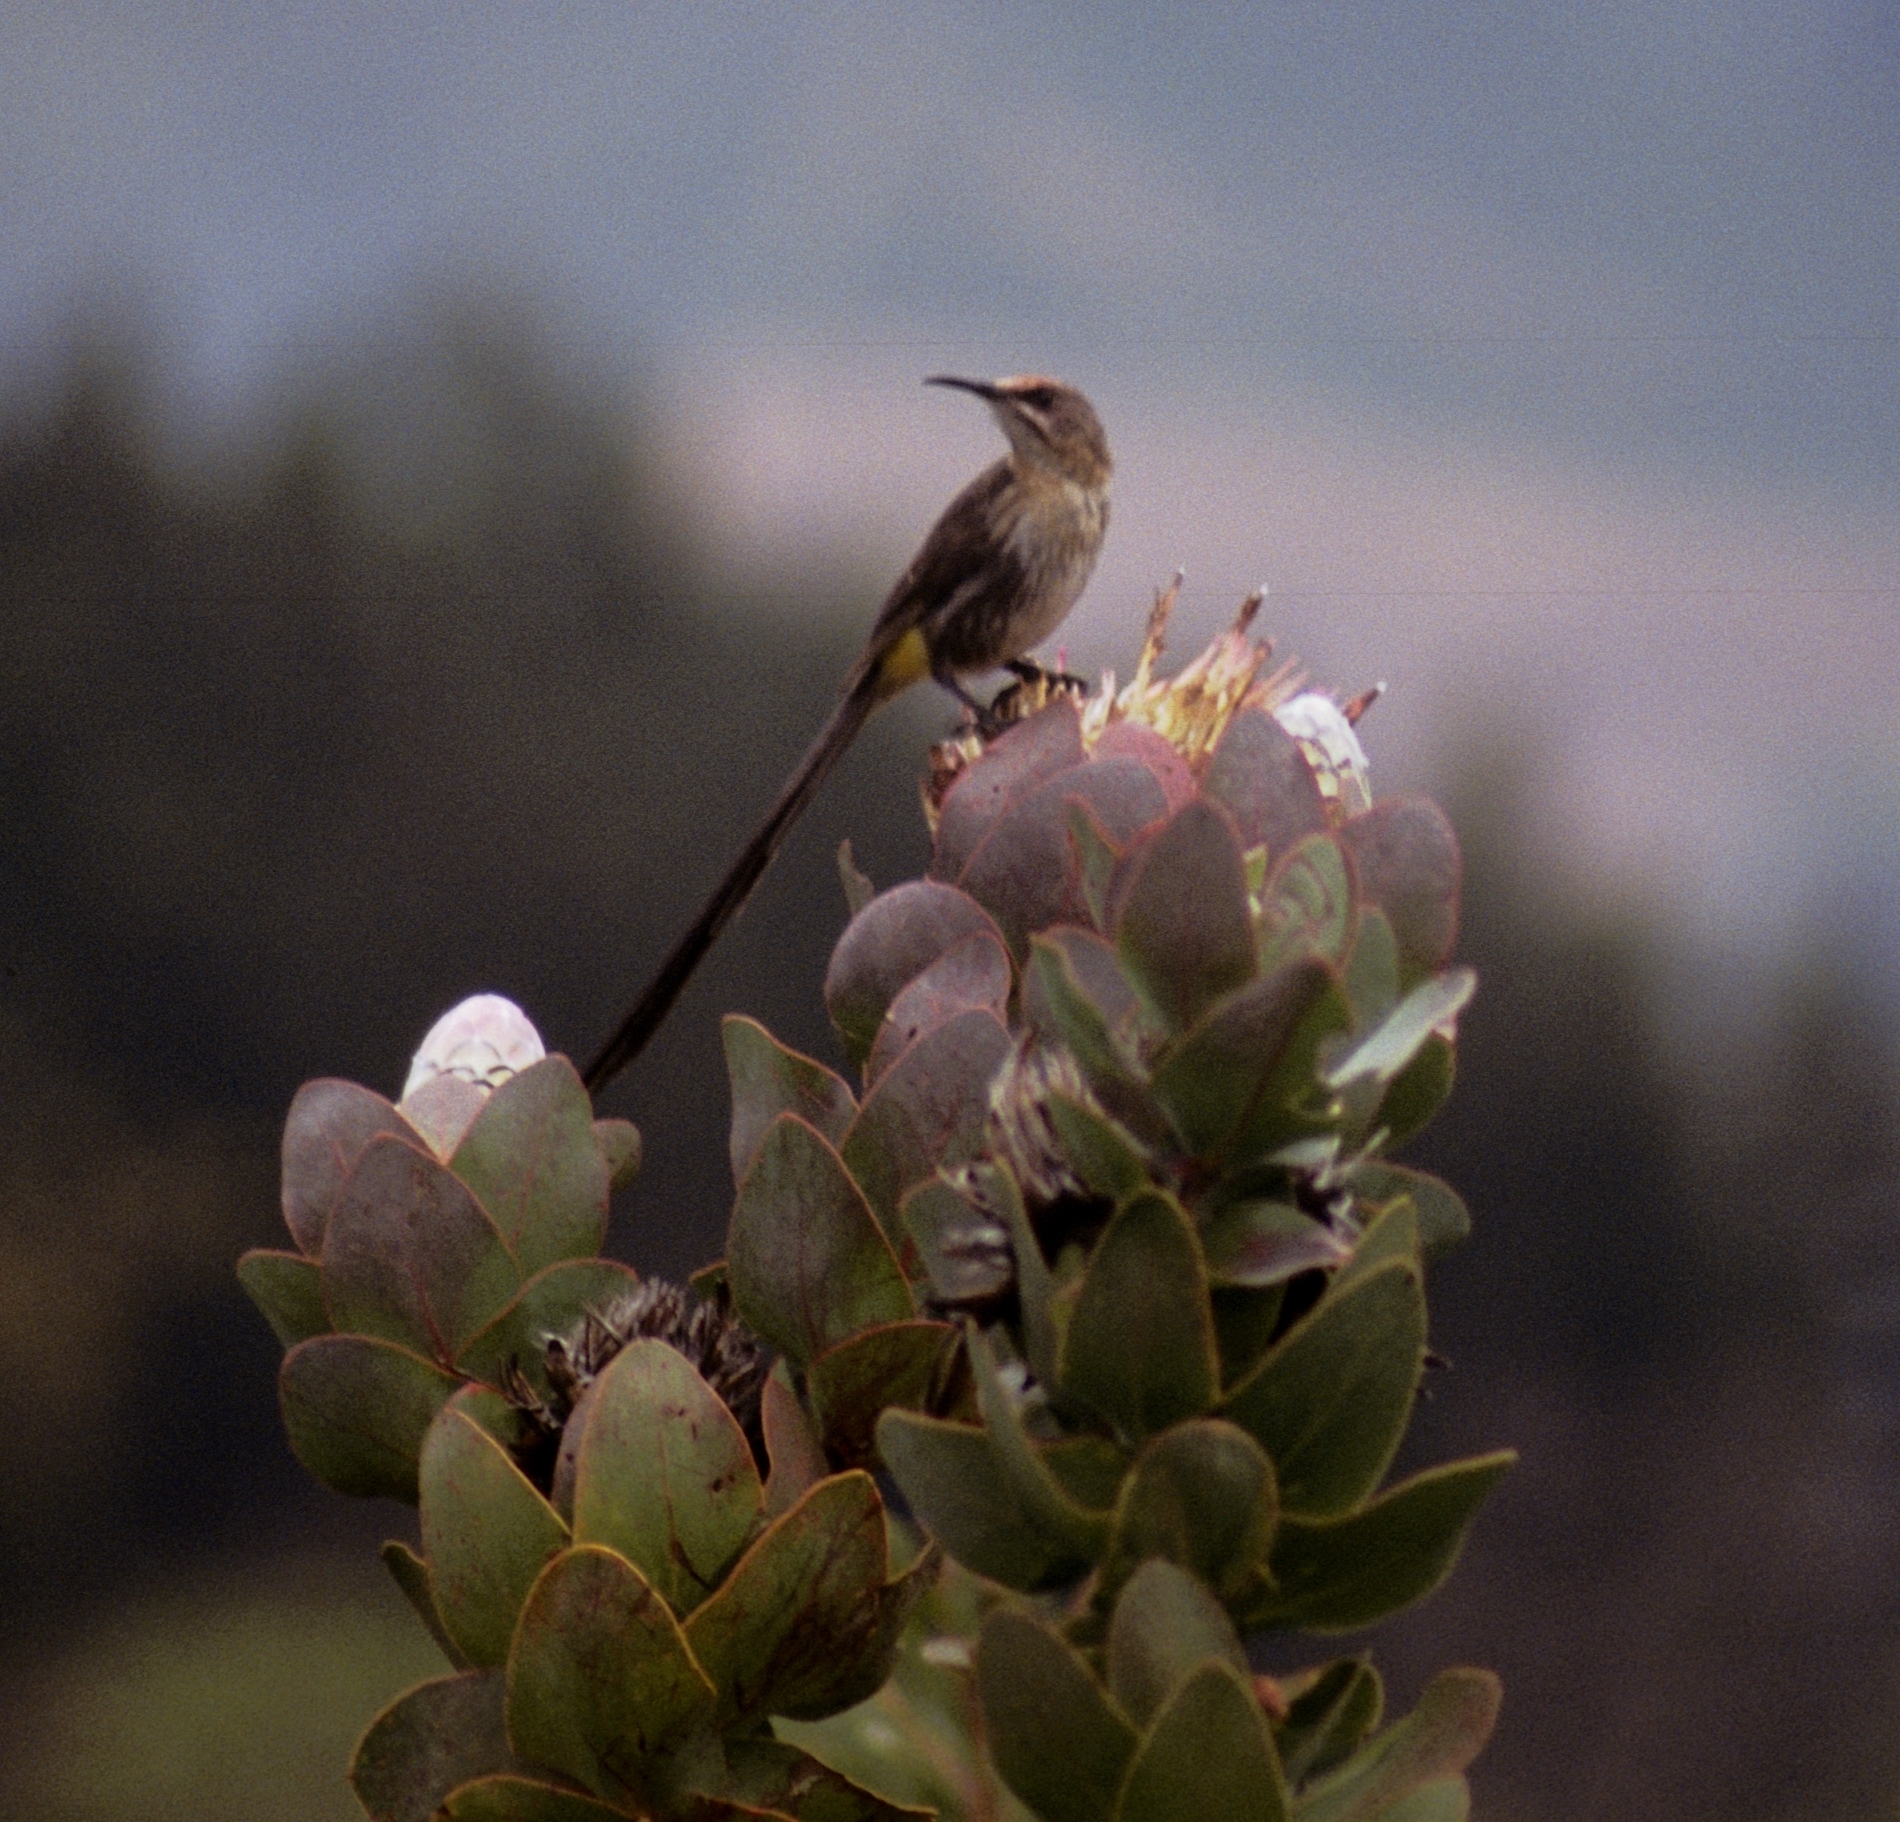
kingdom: Animalia
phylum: Chordata
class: Aves
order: Passeriformes
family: Promeropidae
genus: Promerops
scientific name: Promerops cafer
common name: Cape sugarbird
